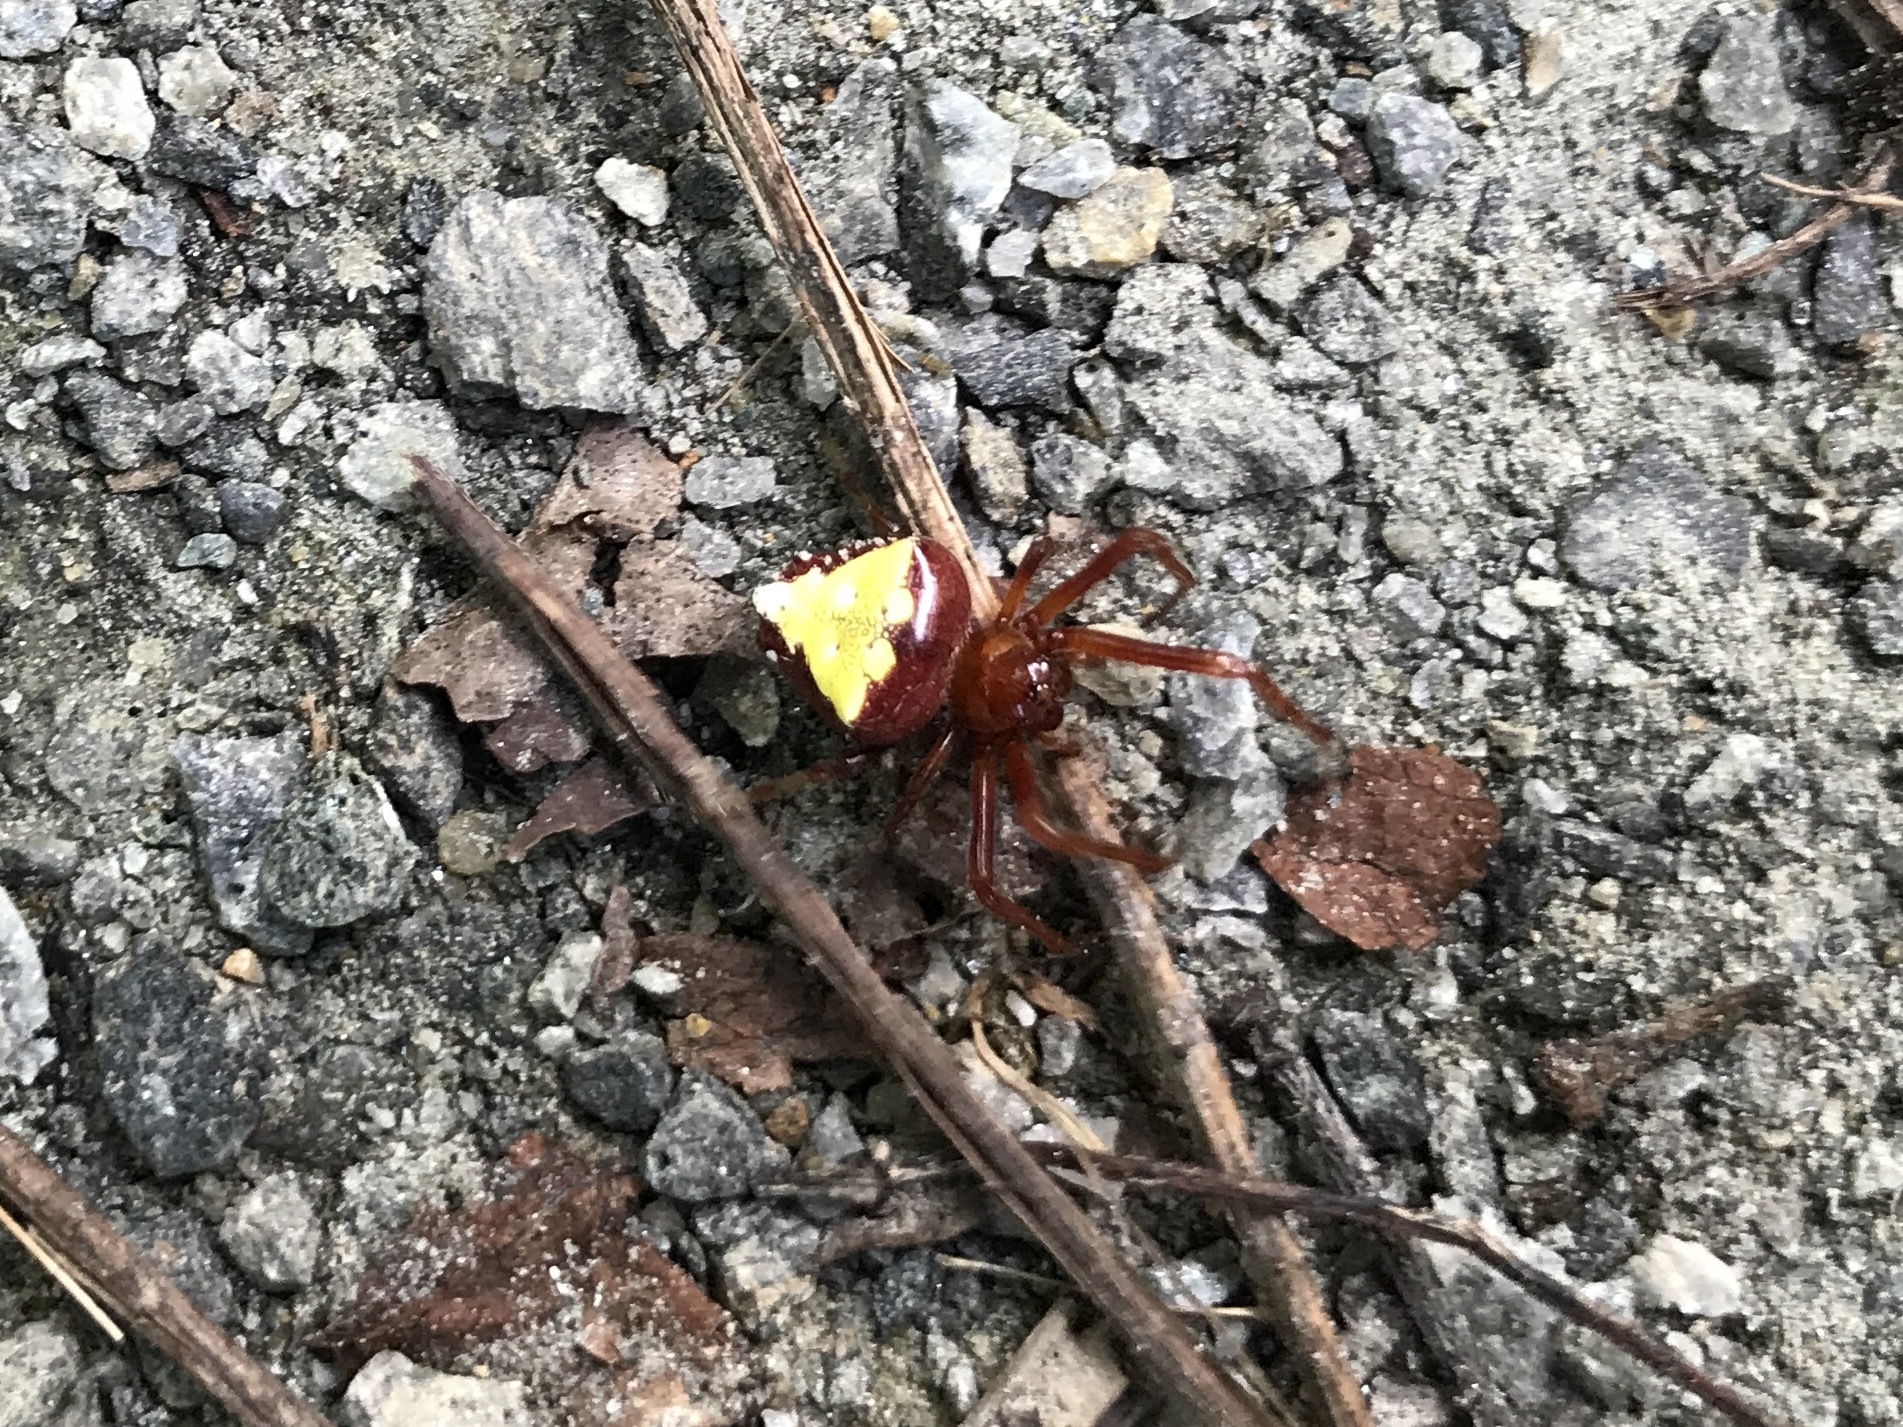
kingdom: Animalia
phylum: Arthropoda
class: Arachnida
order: Araneae
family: Araneidae
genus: Verrucosa
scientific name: Verrucosa arenata
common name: Orb weavers
